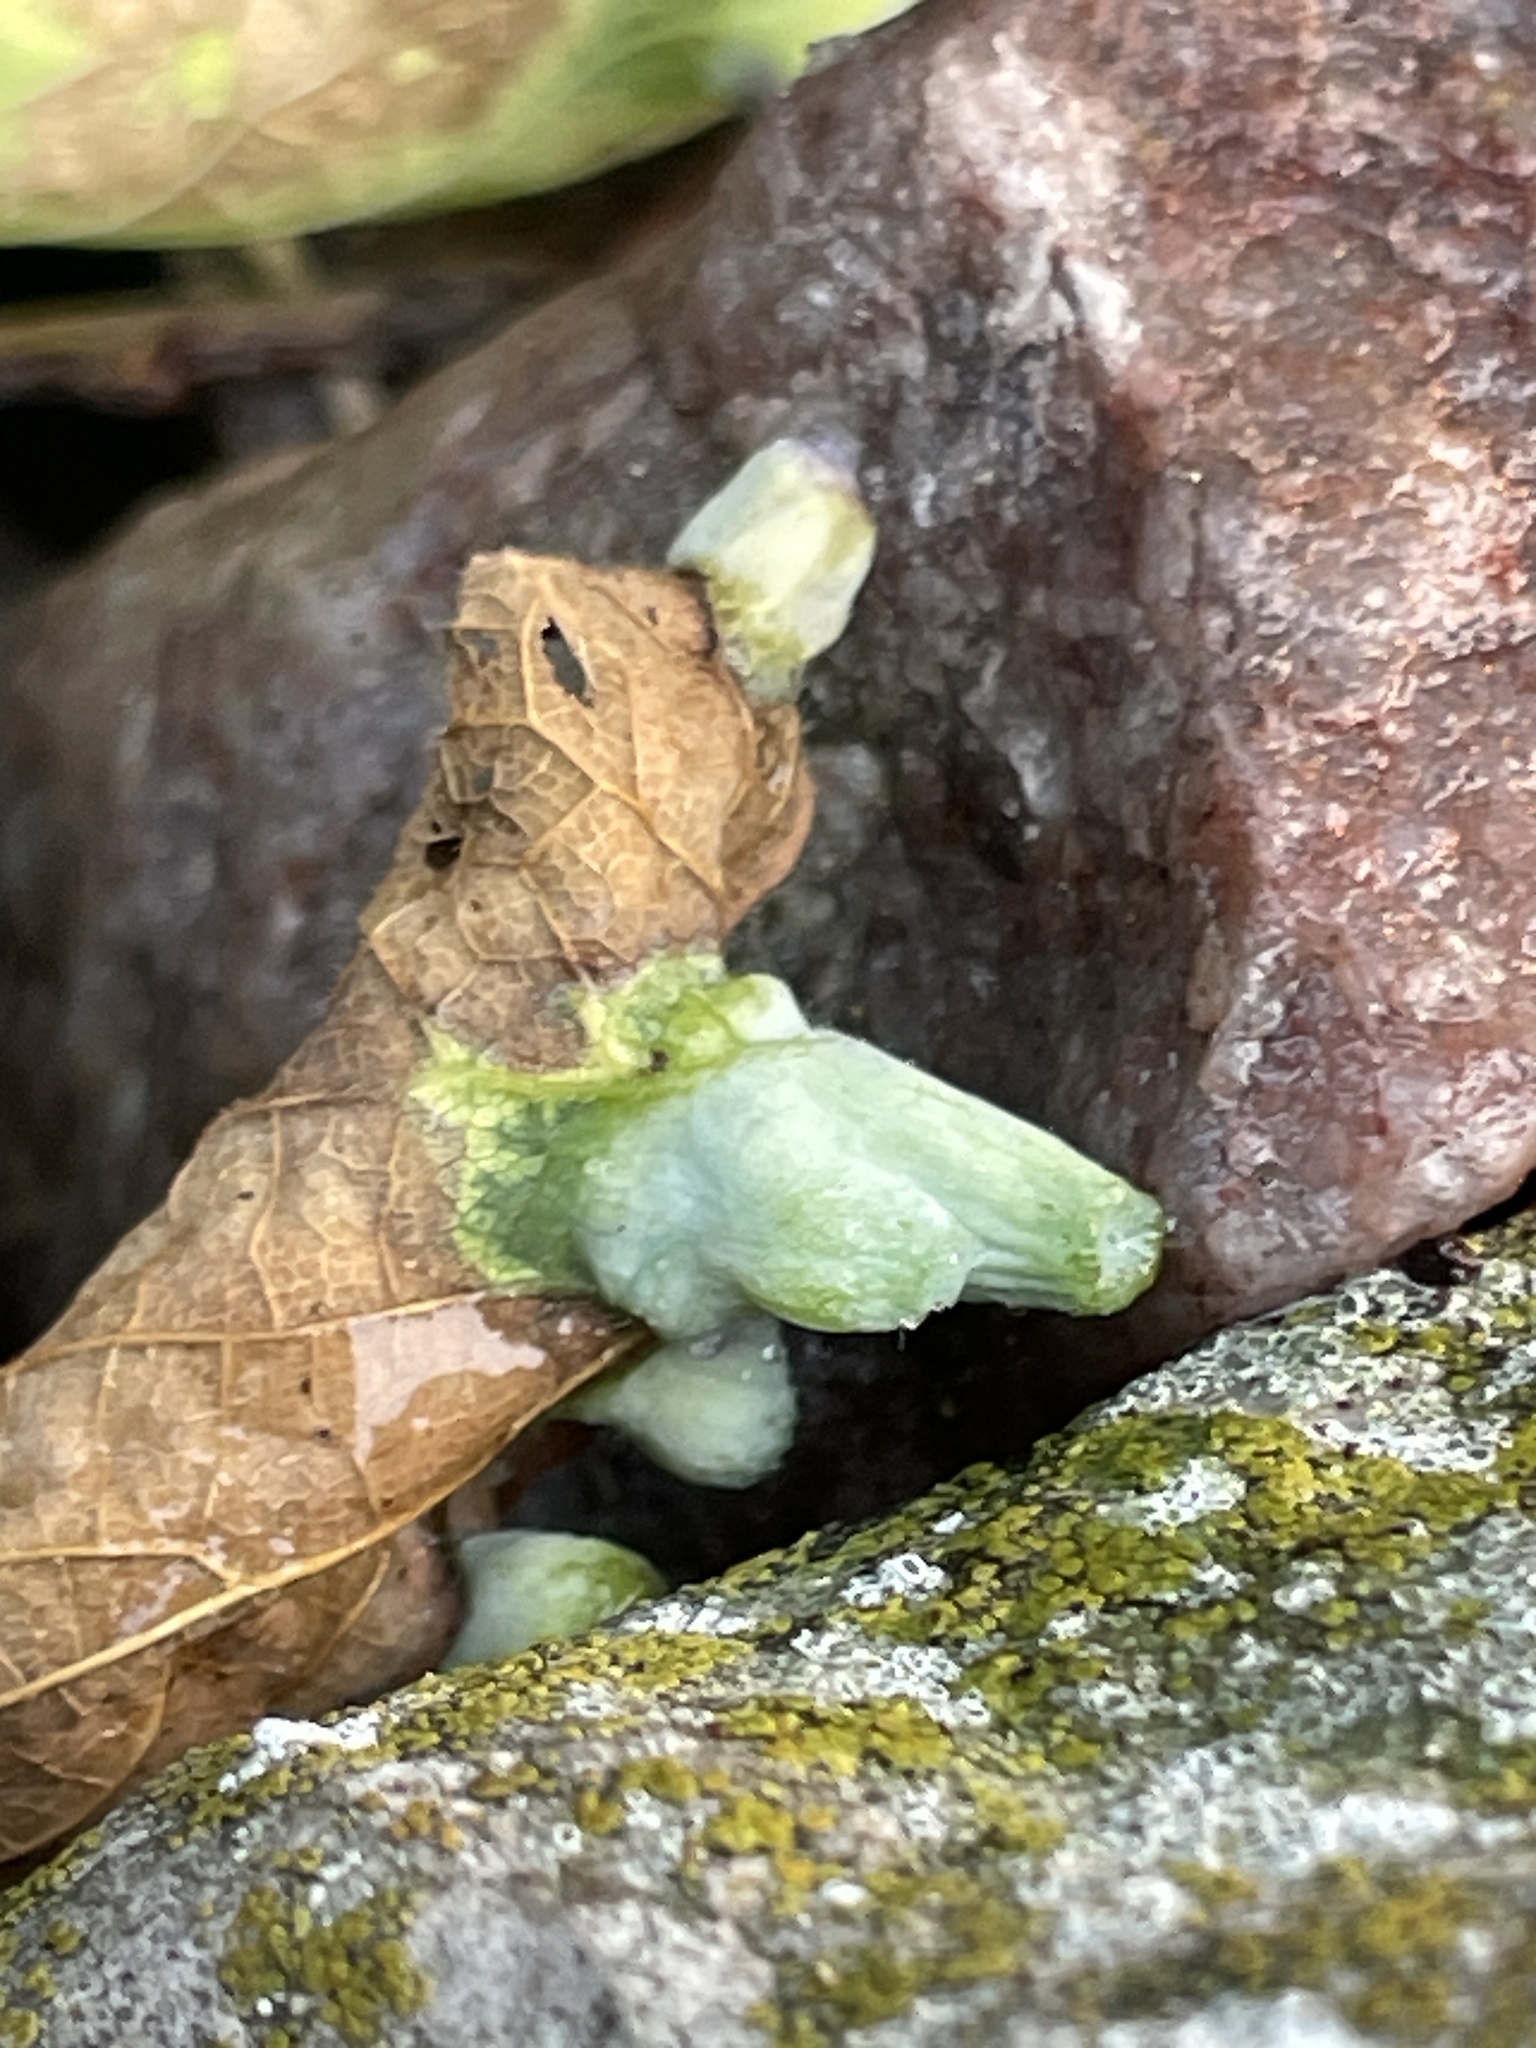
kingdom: Animalia
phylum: Arthropoda
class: Insecta
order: Hemiptera
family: Aphalaridae
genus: Pachypsylla
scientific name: Pachypsylla celtidismamma
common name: Hackberry nipplegall psyllid
